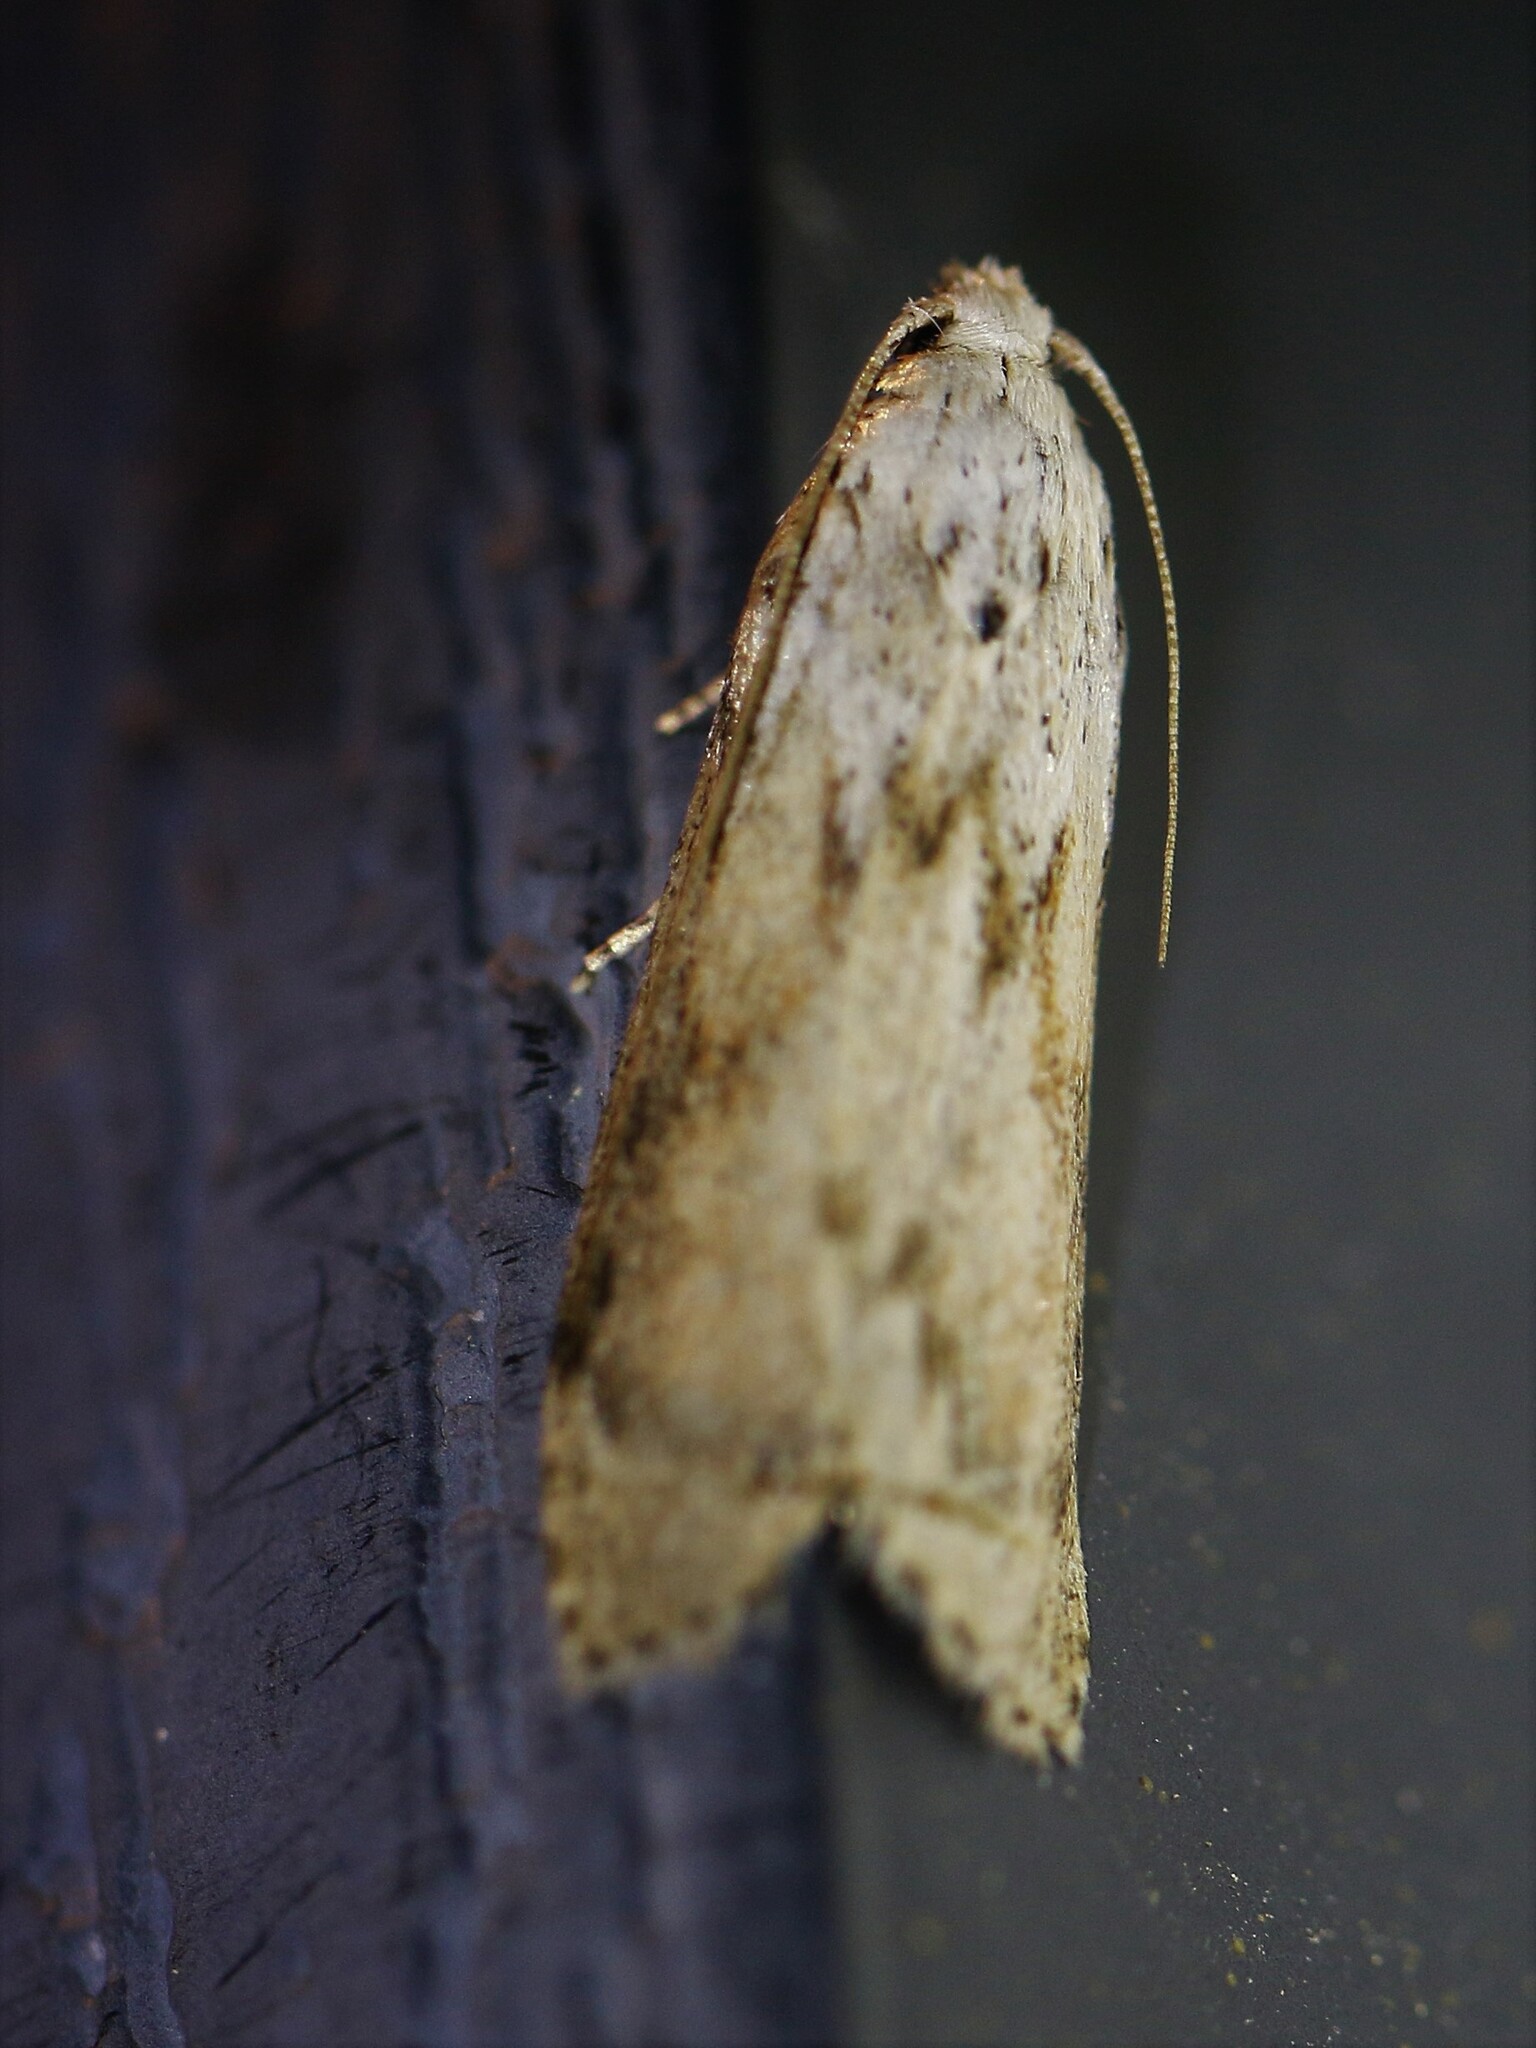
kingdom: Animalia
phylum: Arthropoda
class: Insecta
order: Lepidoptera
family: Pyralidae
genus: Aphomia
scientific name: Aphomia sociella
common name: Bee moth
